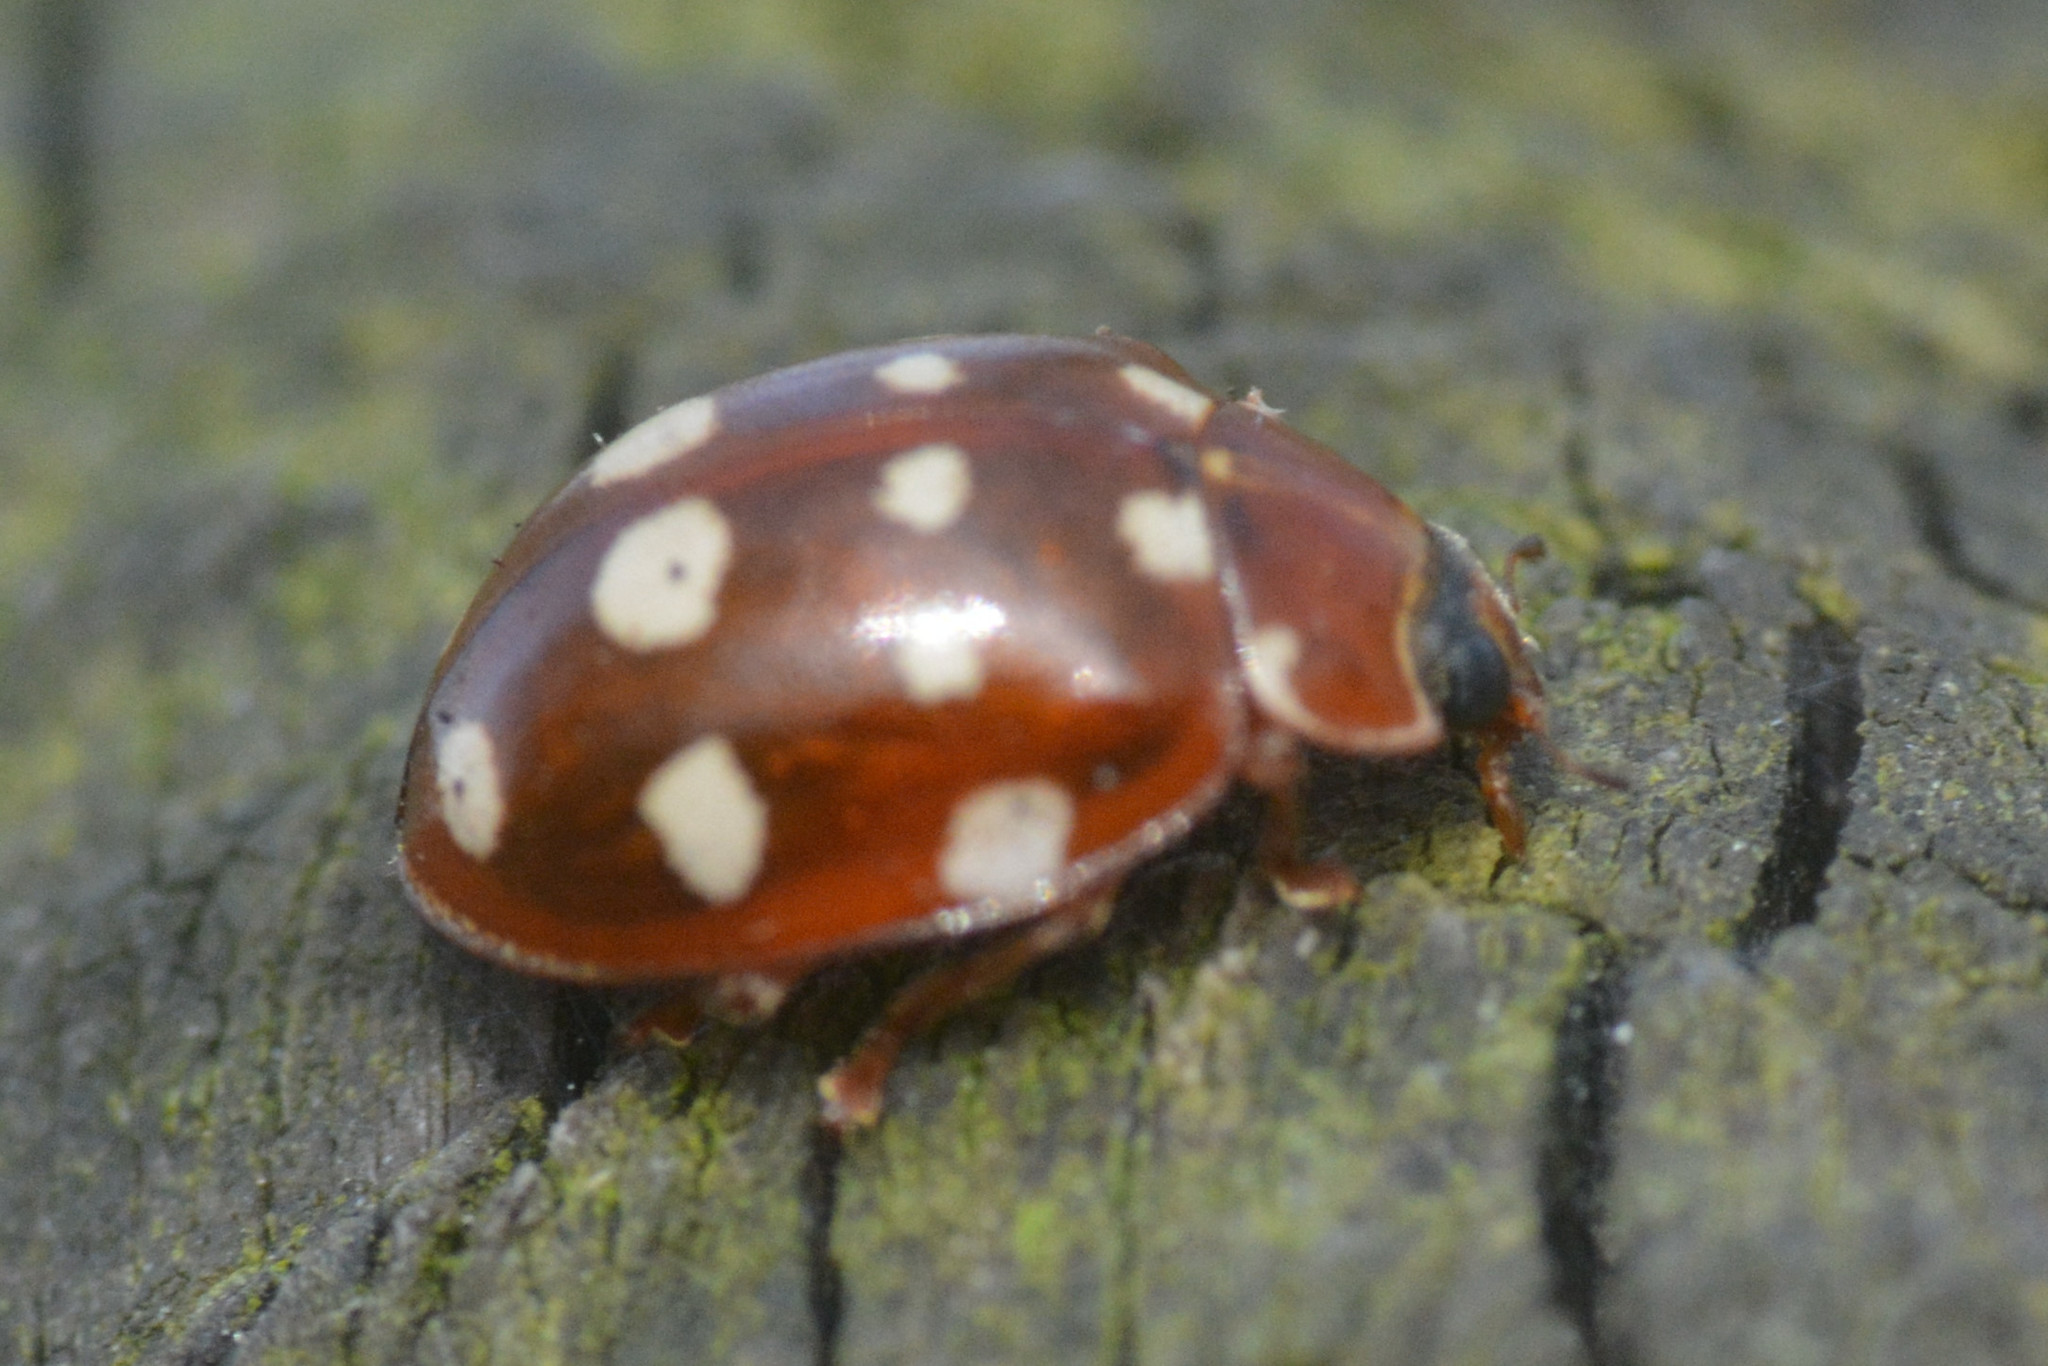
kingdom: Animalia
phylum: Arthropoda
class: Insecta
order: Coleoptera
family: Coccinellidae
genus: Calvia
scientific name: Calvia quatuordecimguttata
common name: Cream-spot ladybird
